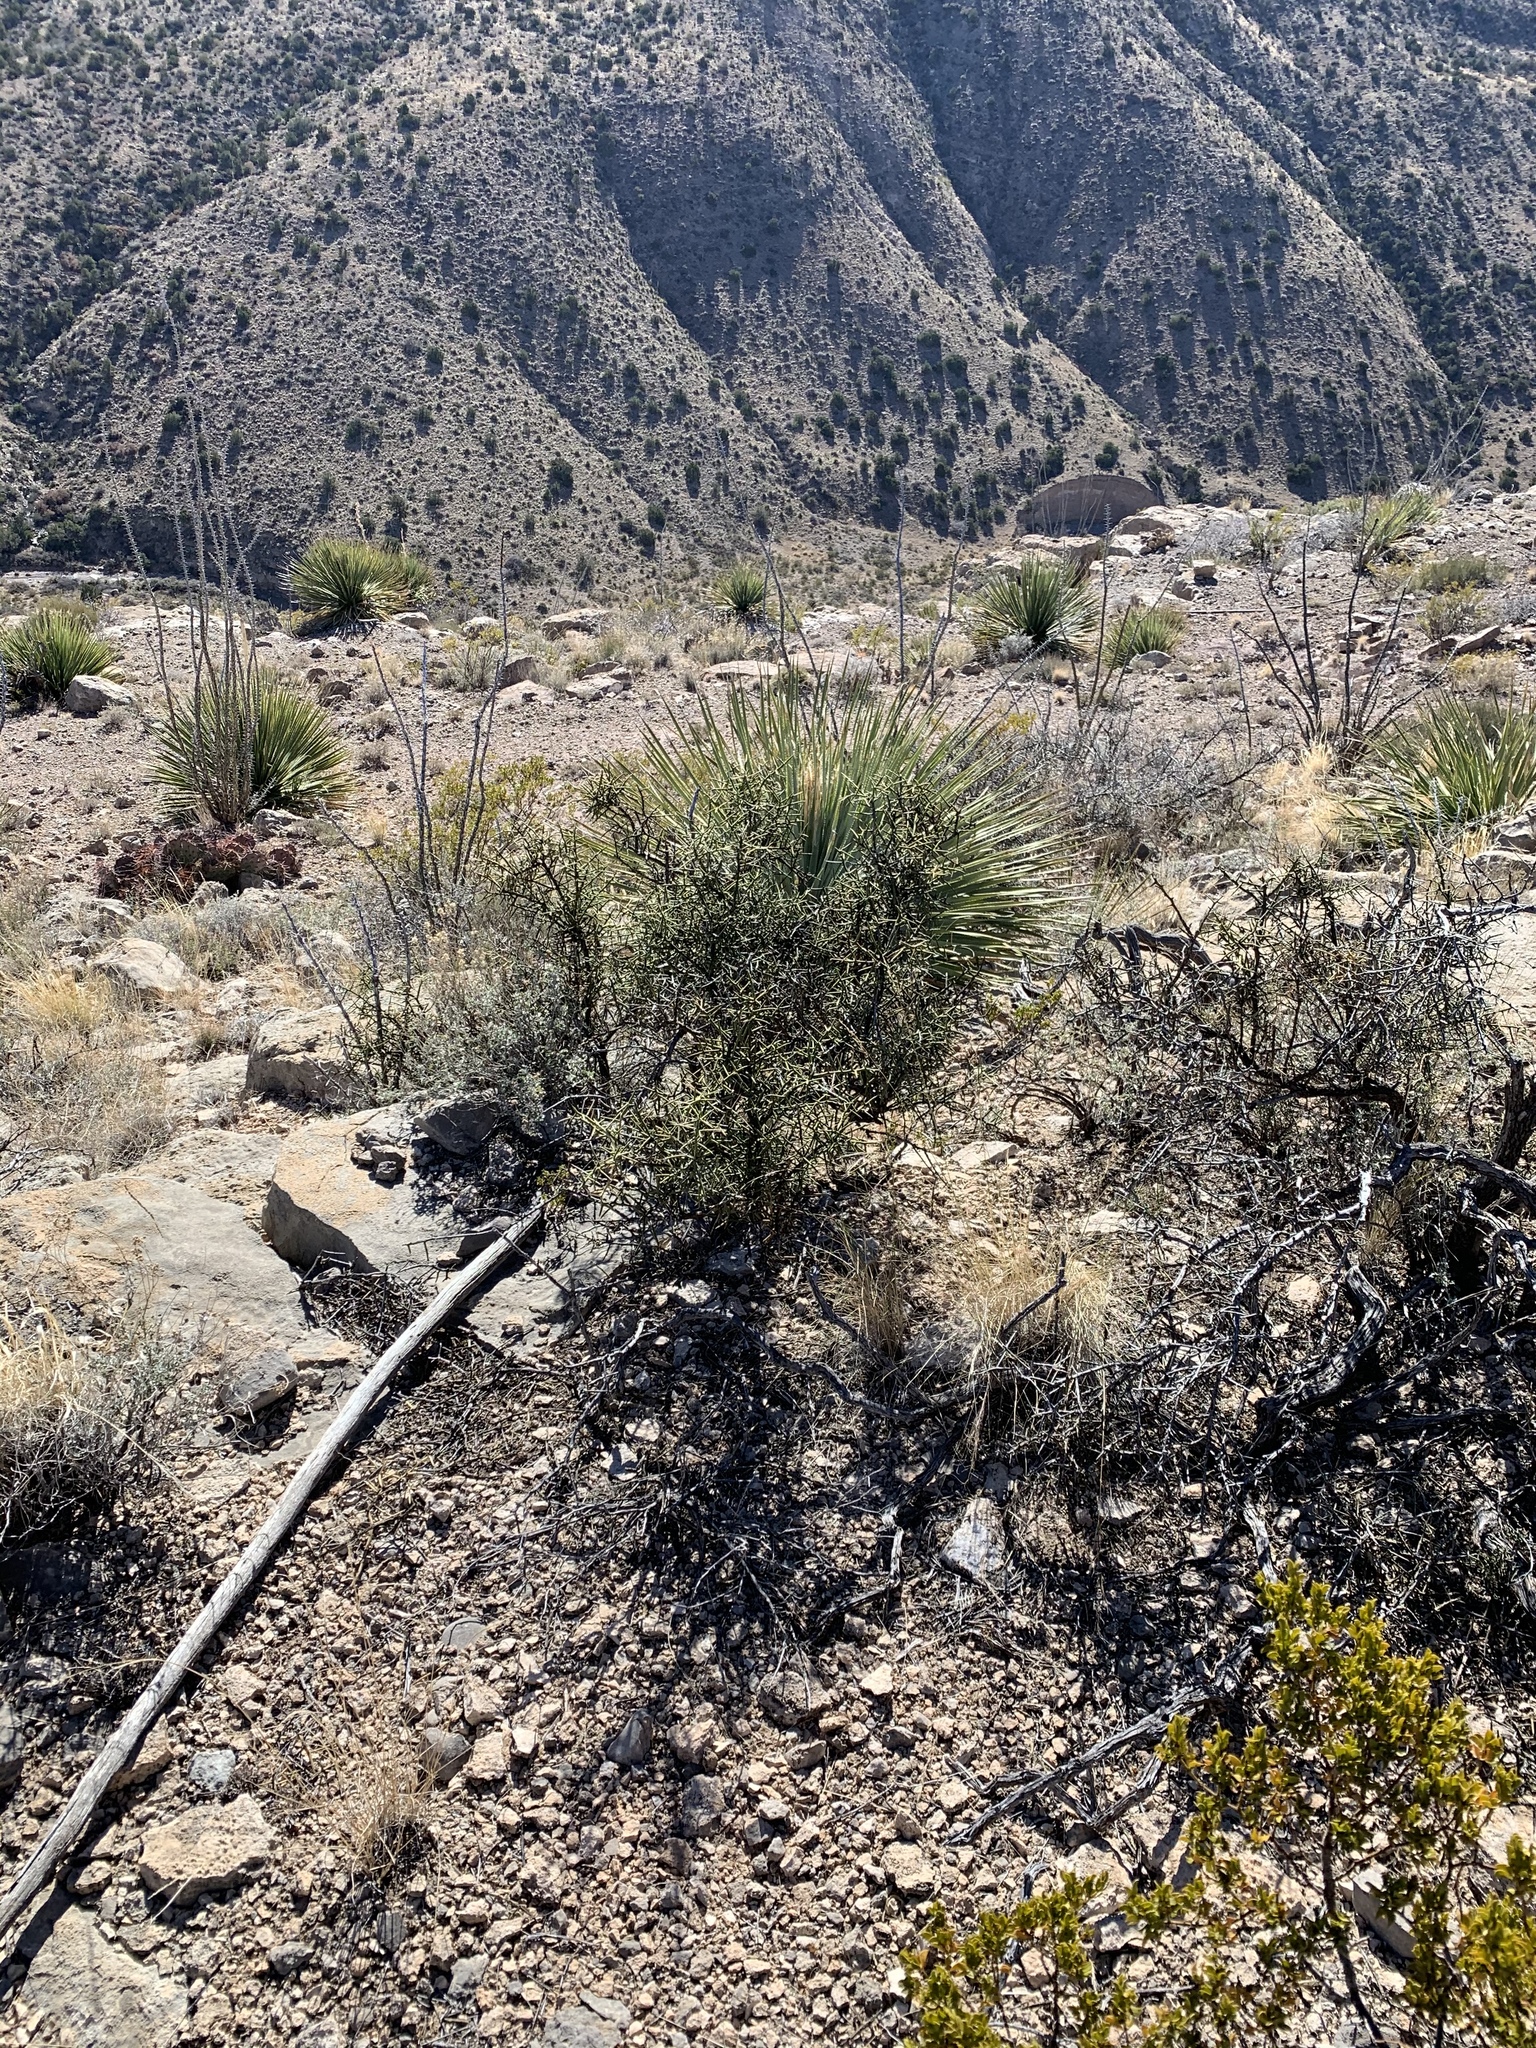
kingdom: Plantae
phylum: Tracheophyta
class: Magnoliopsida
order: Brassicales
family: Koeberliniaceae
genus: Koeberlinia
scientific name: Koeberlinia spinosa
